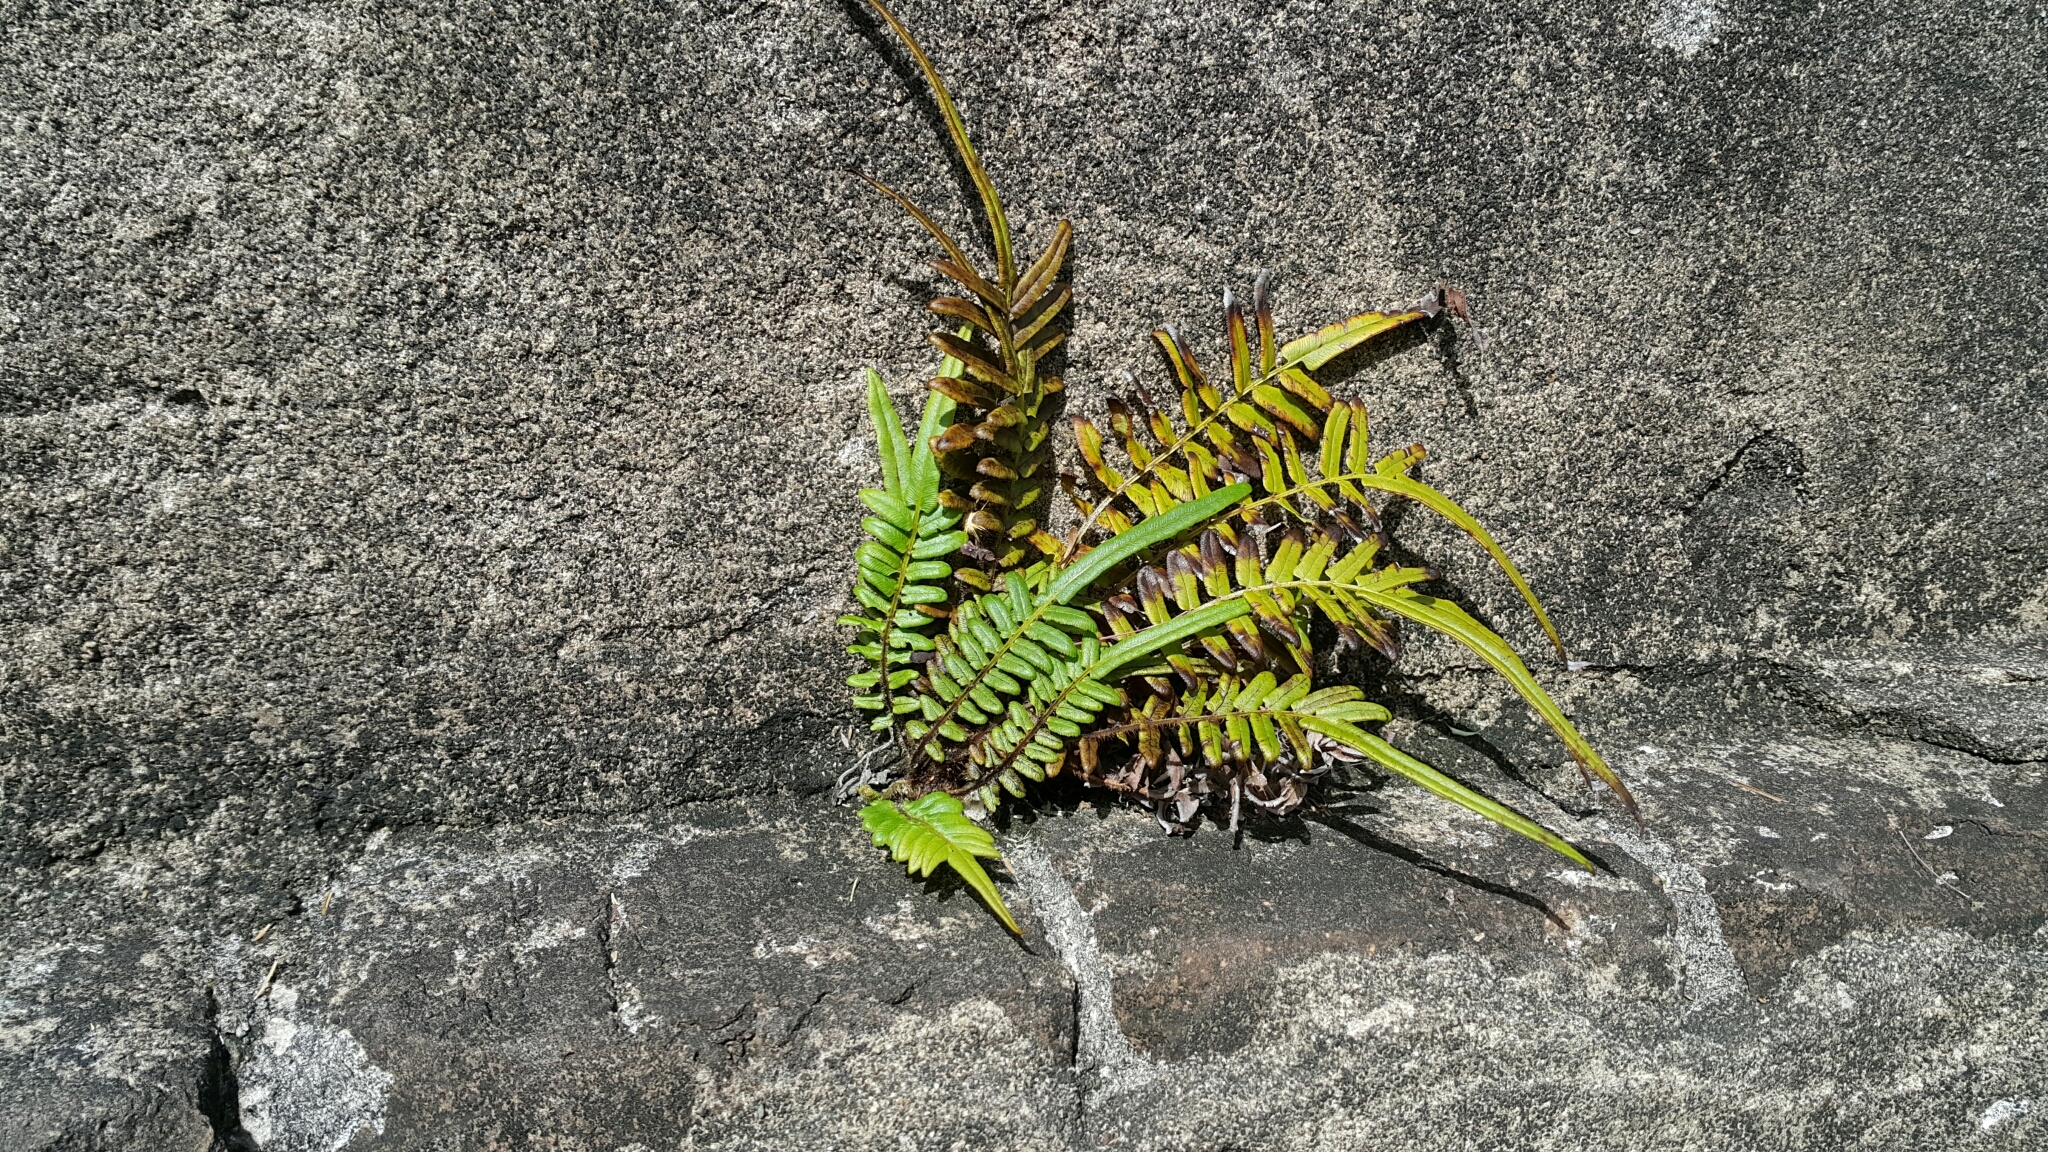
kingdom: Plantae
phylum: Tracheophyta
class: Polypodiopsida
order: Polypodiales
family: Pteridaceae
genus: Pteris
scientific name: Pteris vittata
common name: Ladder brake
